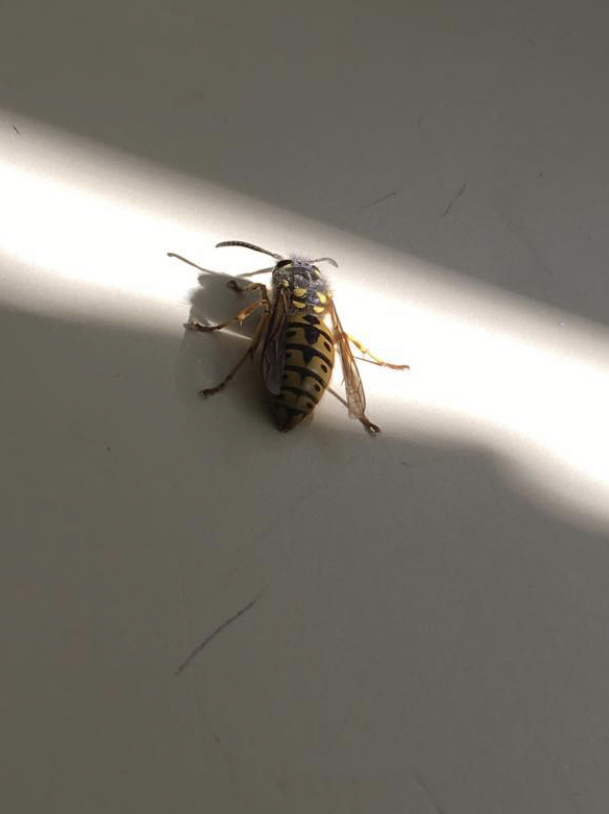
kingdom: Animalia
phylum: Arthropoda
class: Insecta
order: Hymenoptera
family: Vespidae
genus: Vespula
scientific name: Vespula pensylvanica
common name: Western yellowjacket
